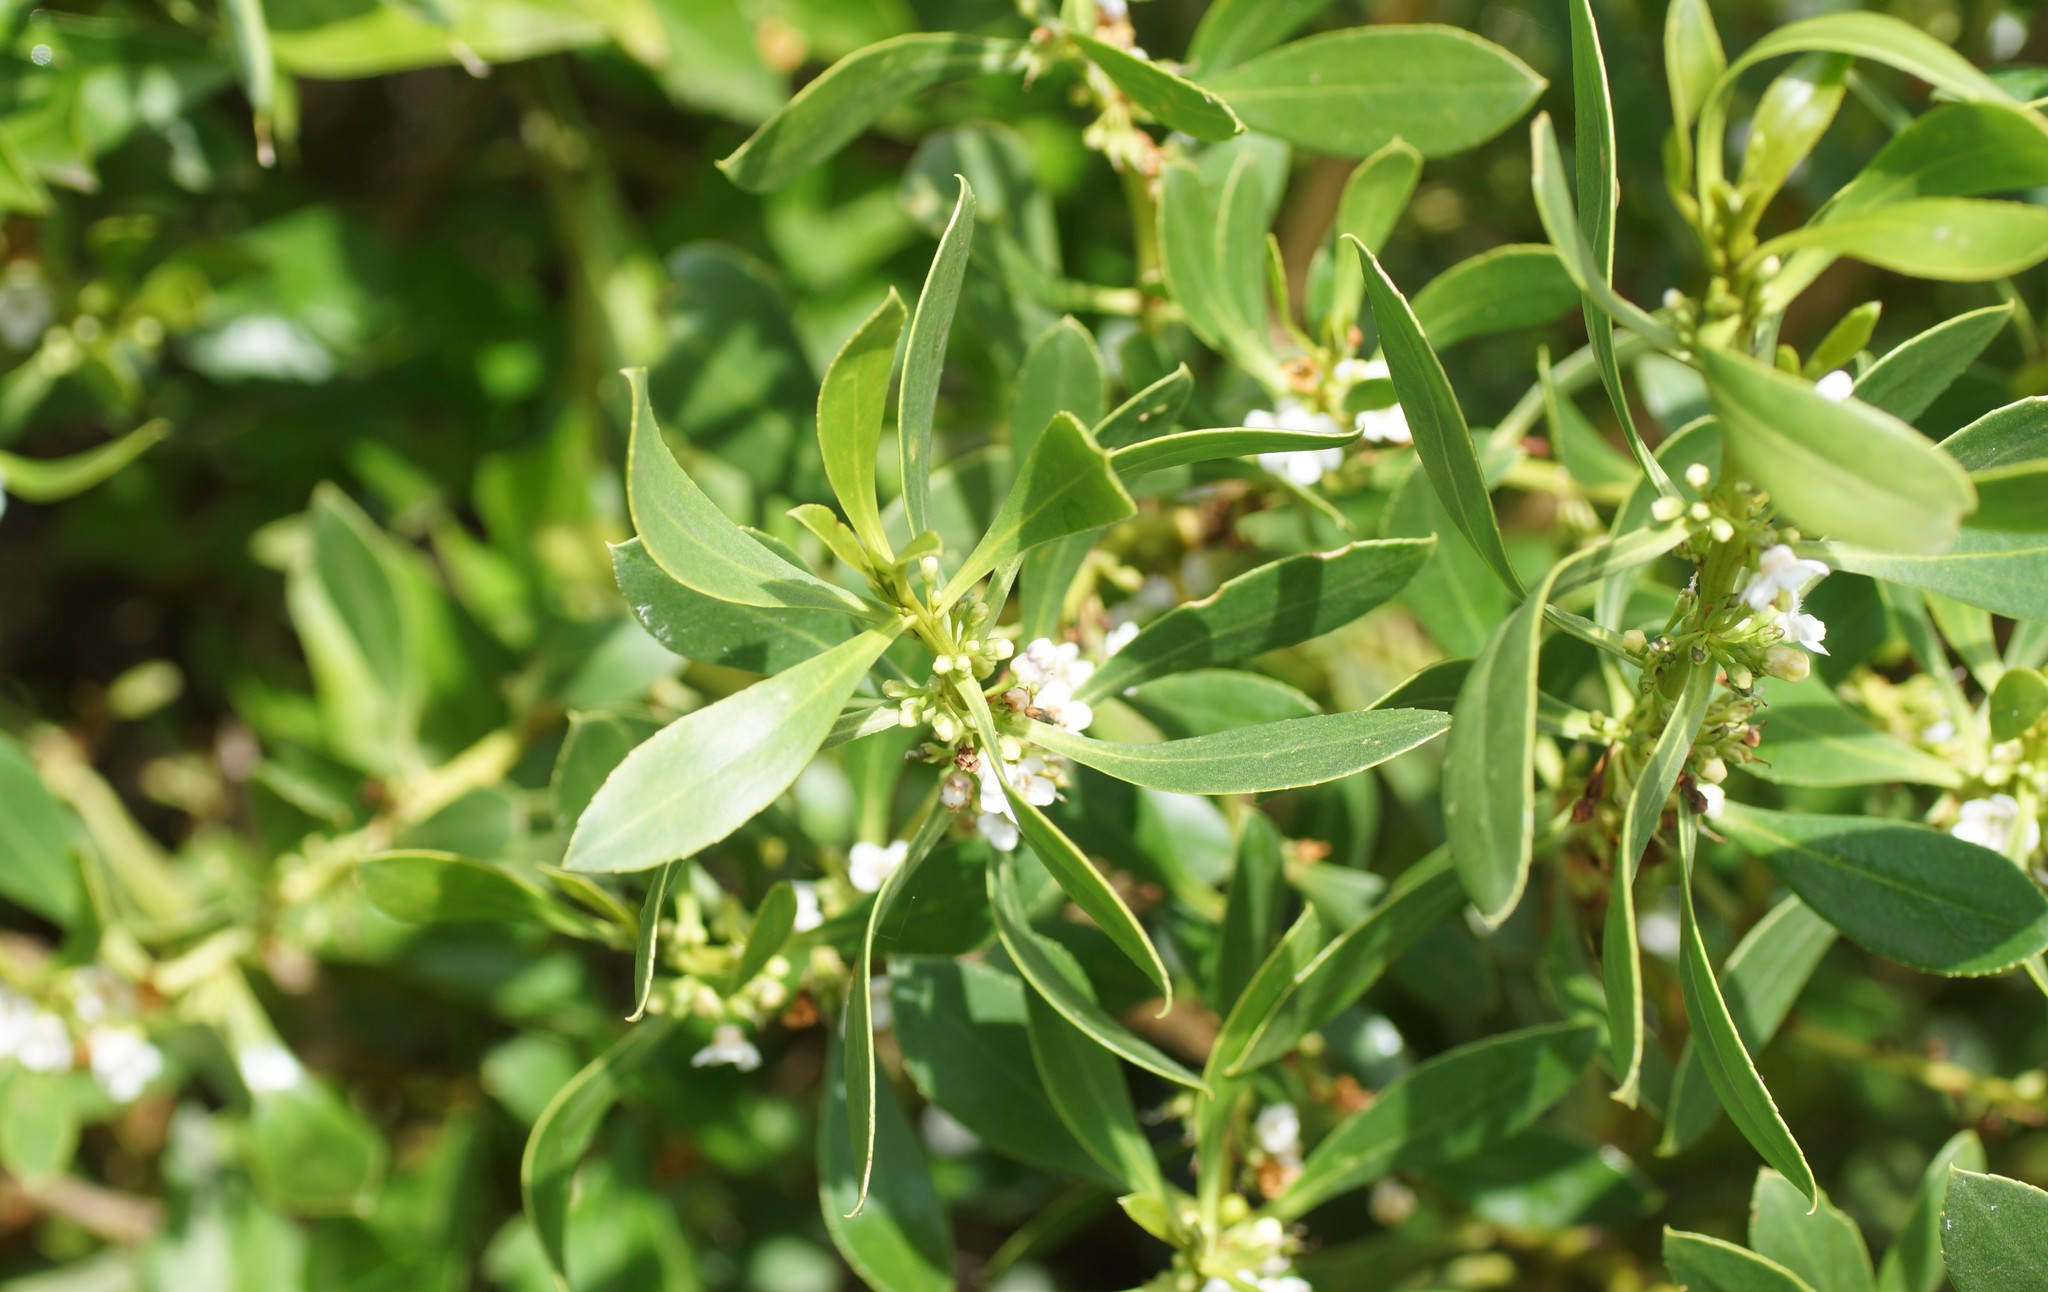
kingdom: Plantae
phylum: Tracheophyta
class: Magnoliopsida
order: Lamiales
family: Scrophulariaceae
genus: Myoporum
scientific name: Myoporum insulare
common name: Common boobialla
